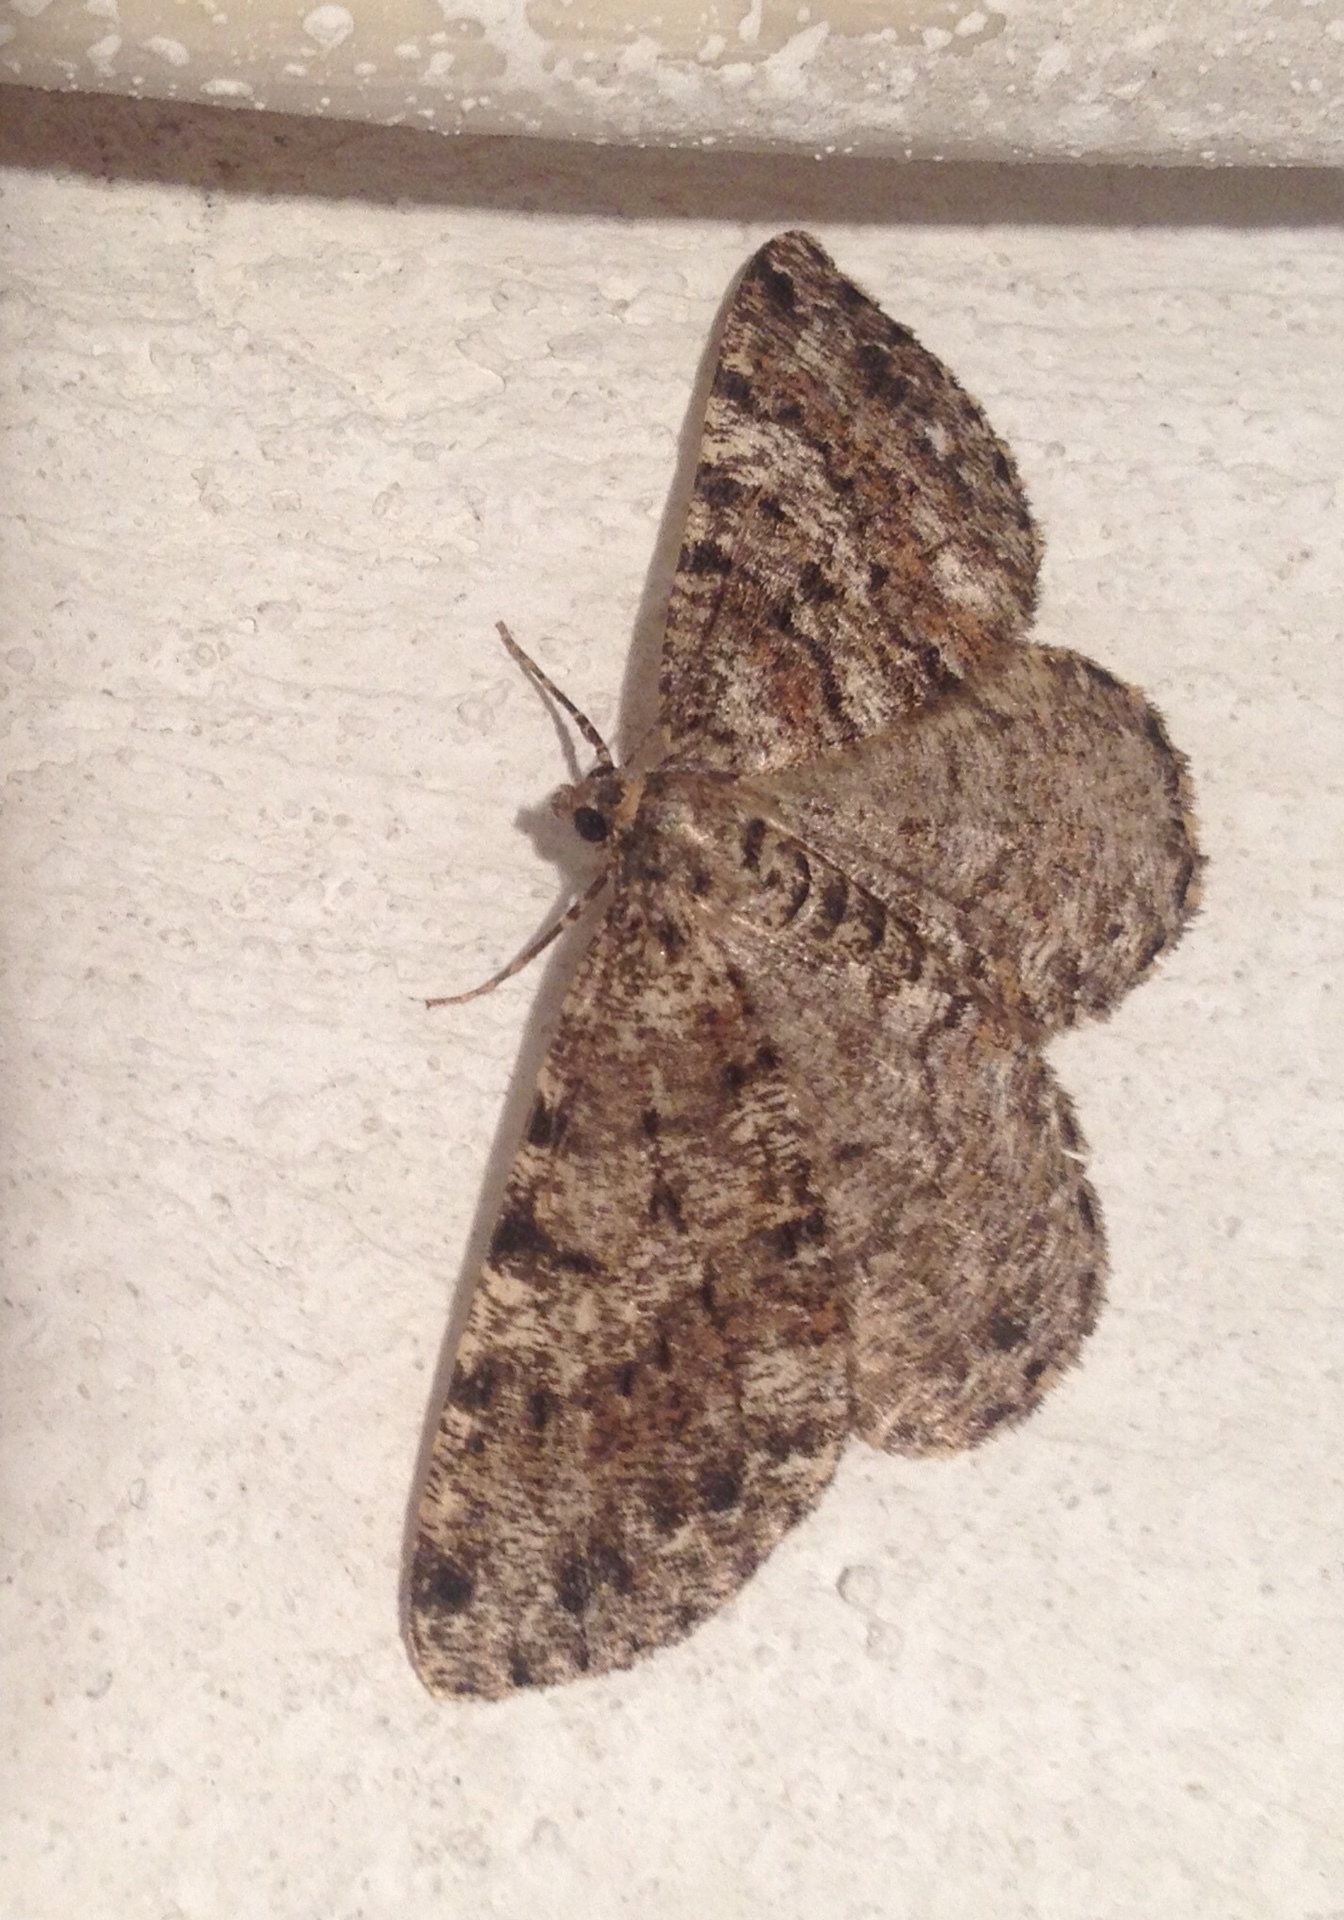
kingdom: Animalia
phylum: Arthropoda
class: Insecta
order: Lepidoptera
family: Geometridae
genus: Deileptenia
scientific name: Deileptenia ribeata
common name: Satin beauty
